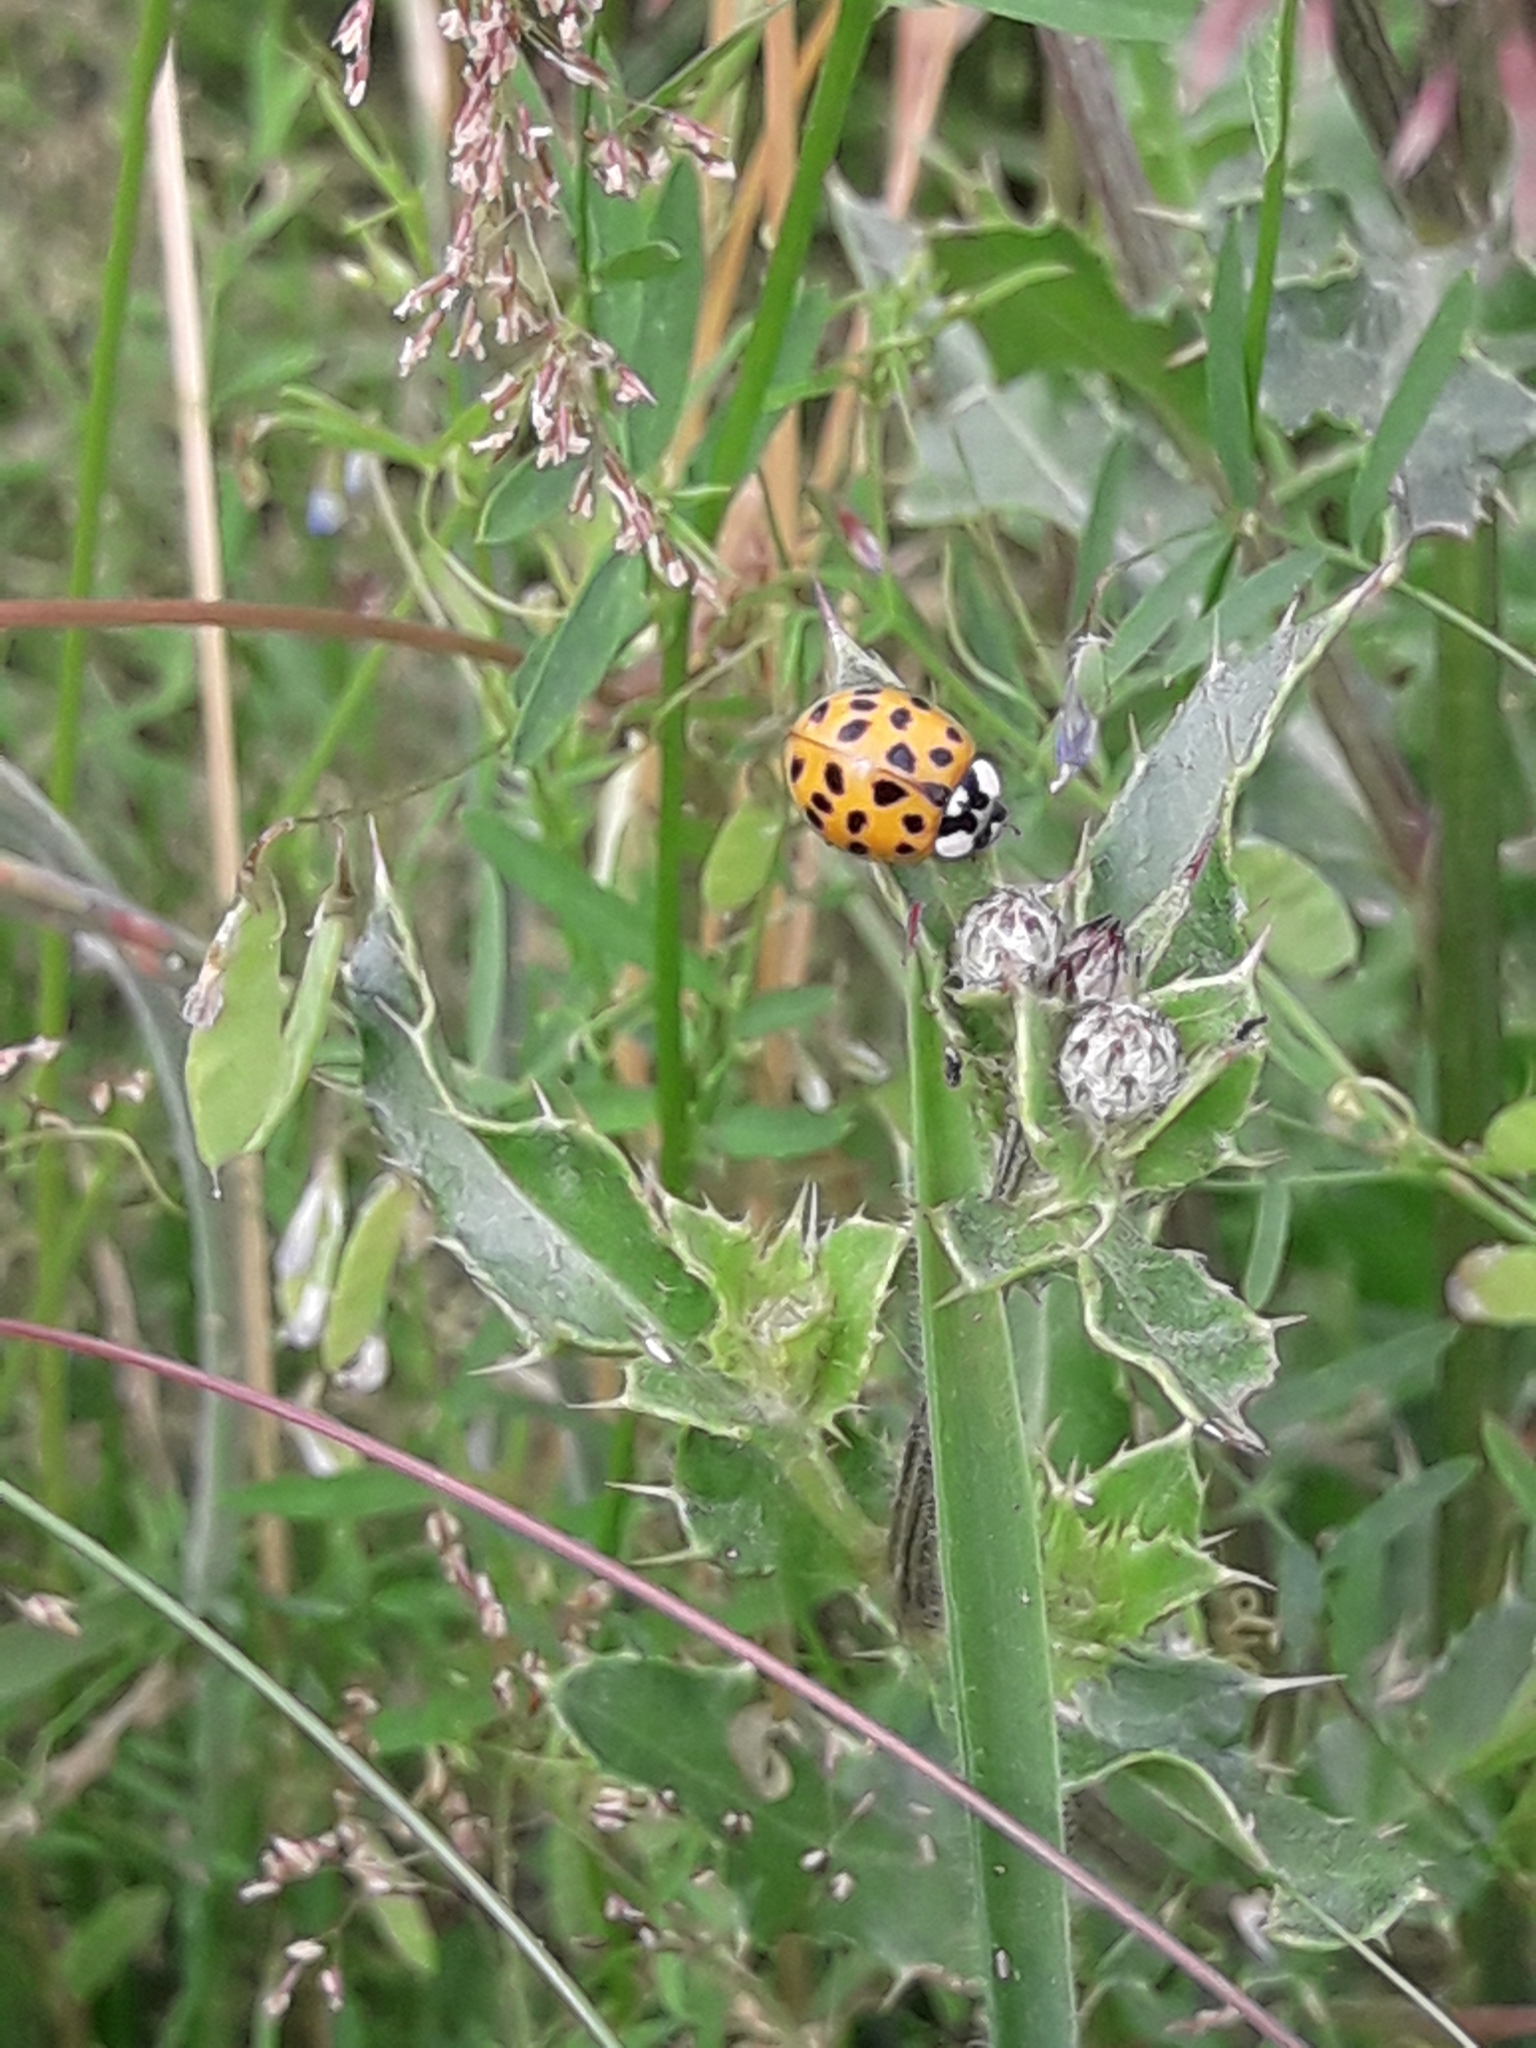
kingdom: Animalia
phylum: Arthropoda
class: Insecta
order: Coleoptera
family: Coccinellidae
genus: Harmonia
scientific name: Harmonia axyridis
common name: Harlequin ladybird
